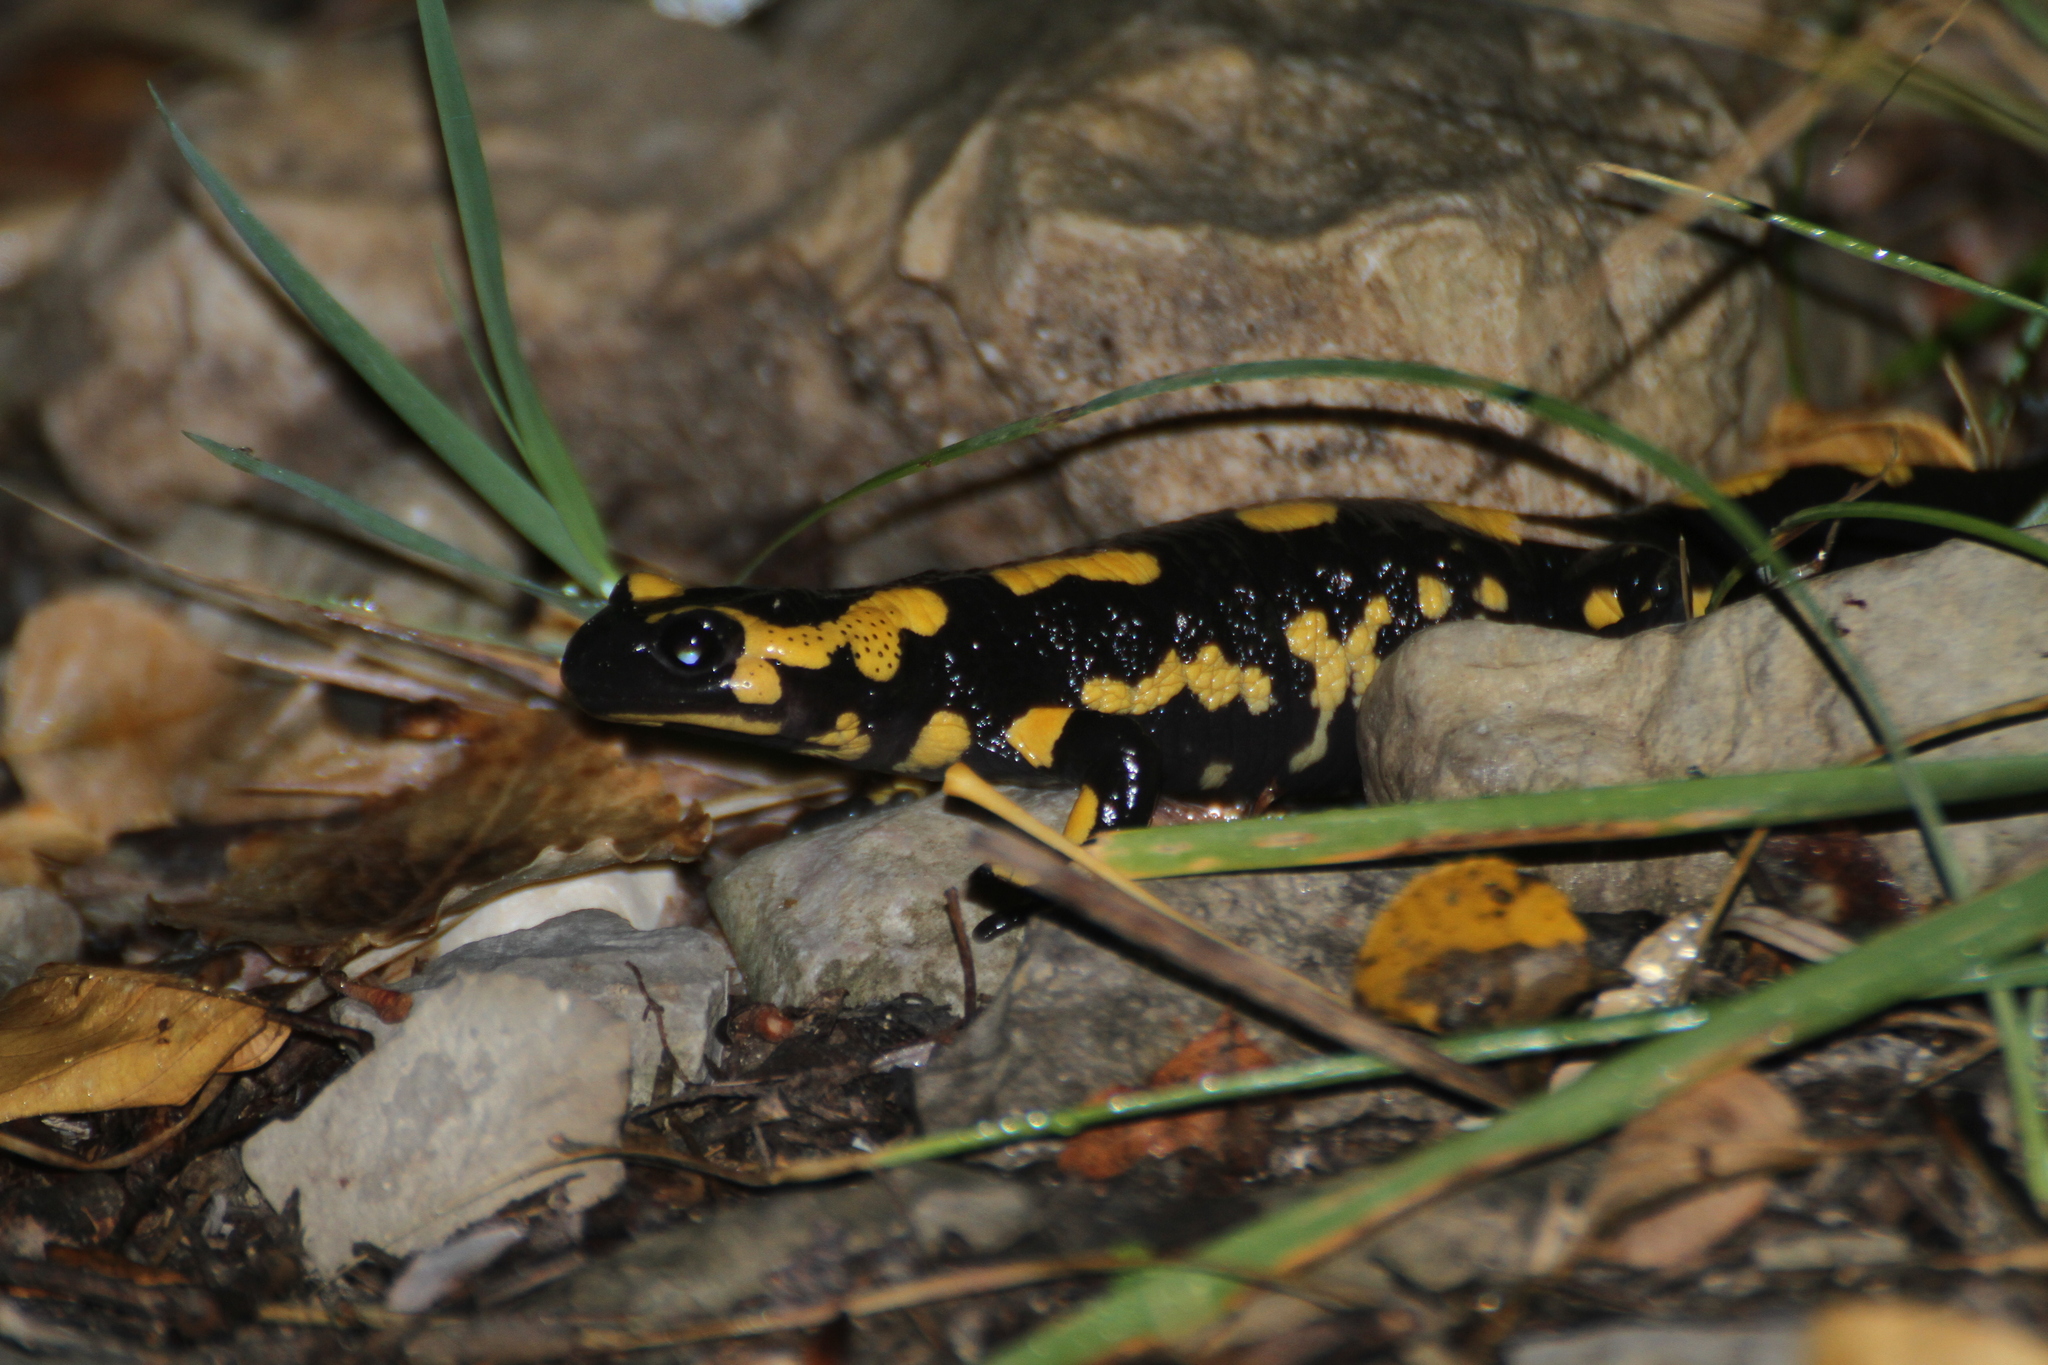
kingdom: Animalia
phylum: Chordata
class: Amphibia
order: Caudata
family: Salamandridae
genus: Salamandra
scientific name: Salamandra salamandra
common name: Fire salamander
